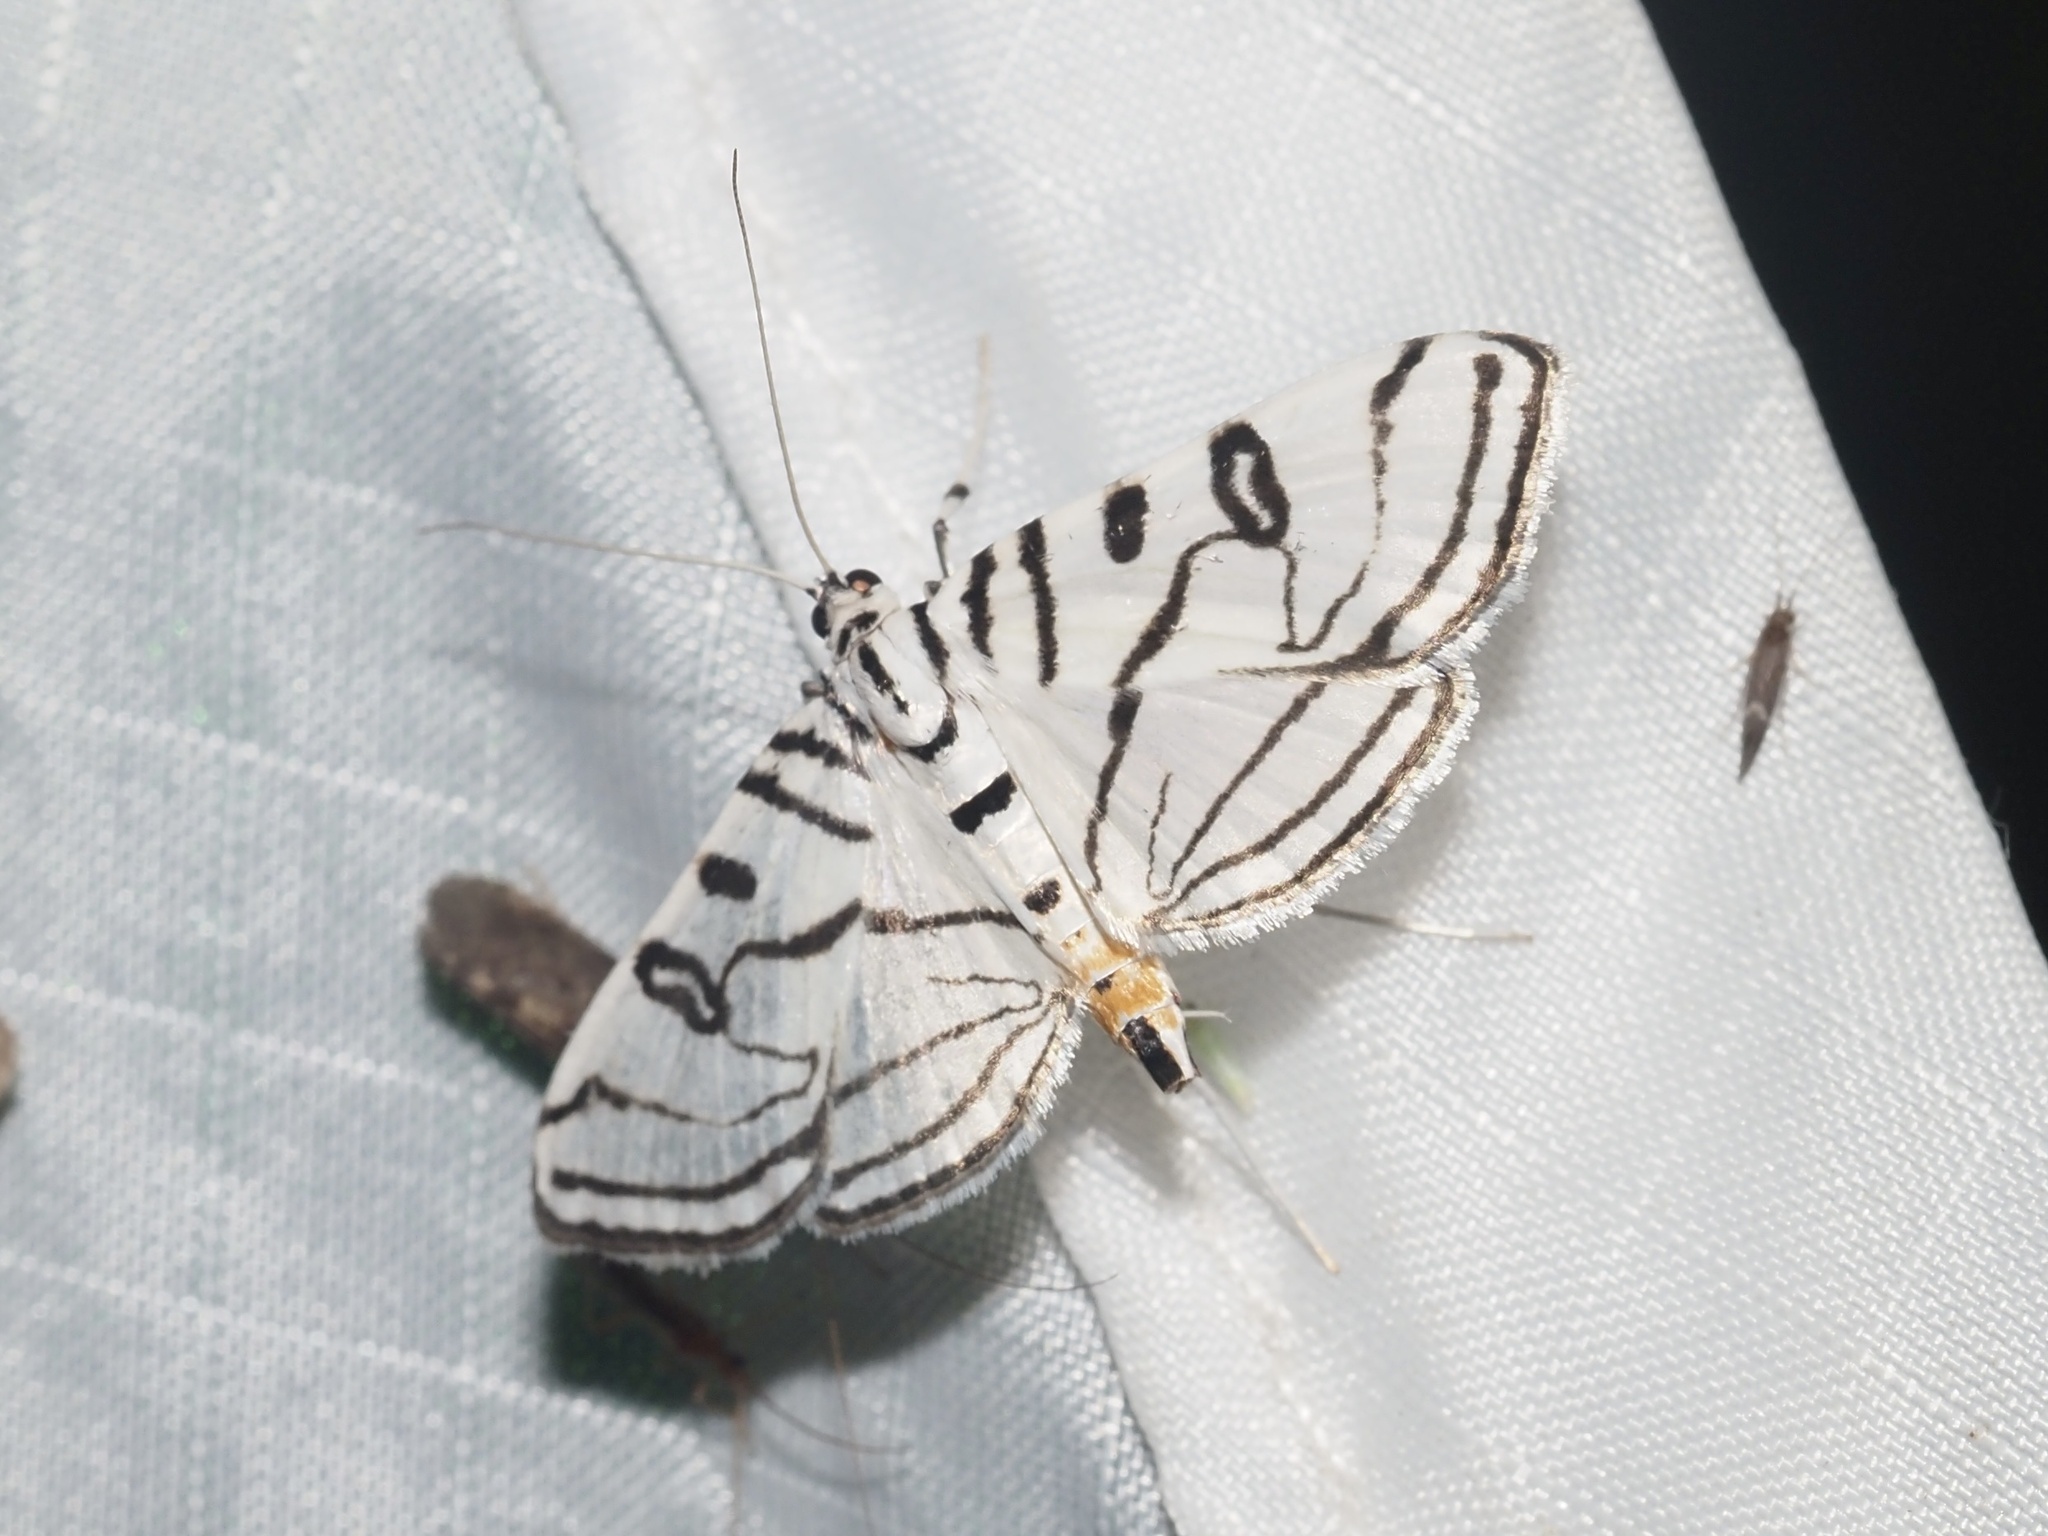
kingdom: Animalia
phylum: Arthropoda
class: Insecta
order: Lepidoptera
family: Crambidae
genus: Conchylodes
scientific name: Conchylodes ovulalis
